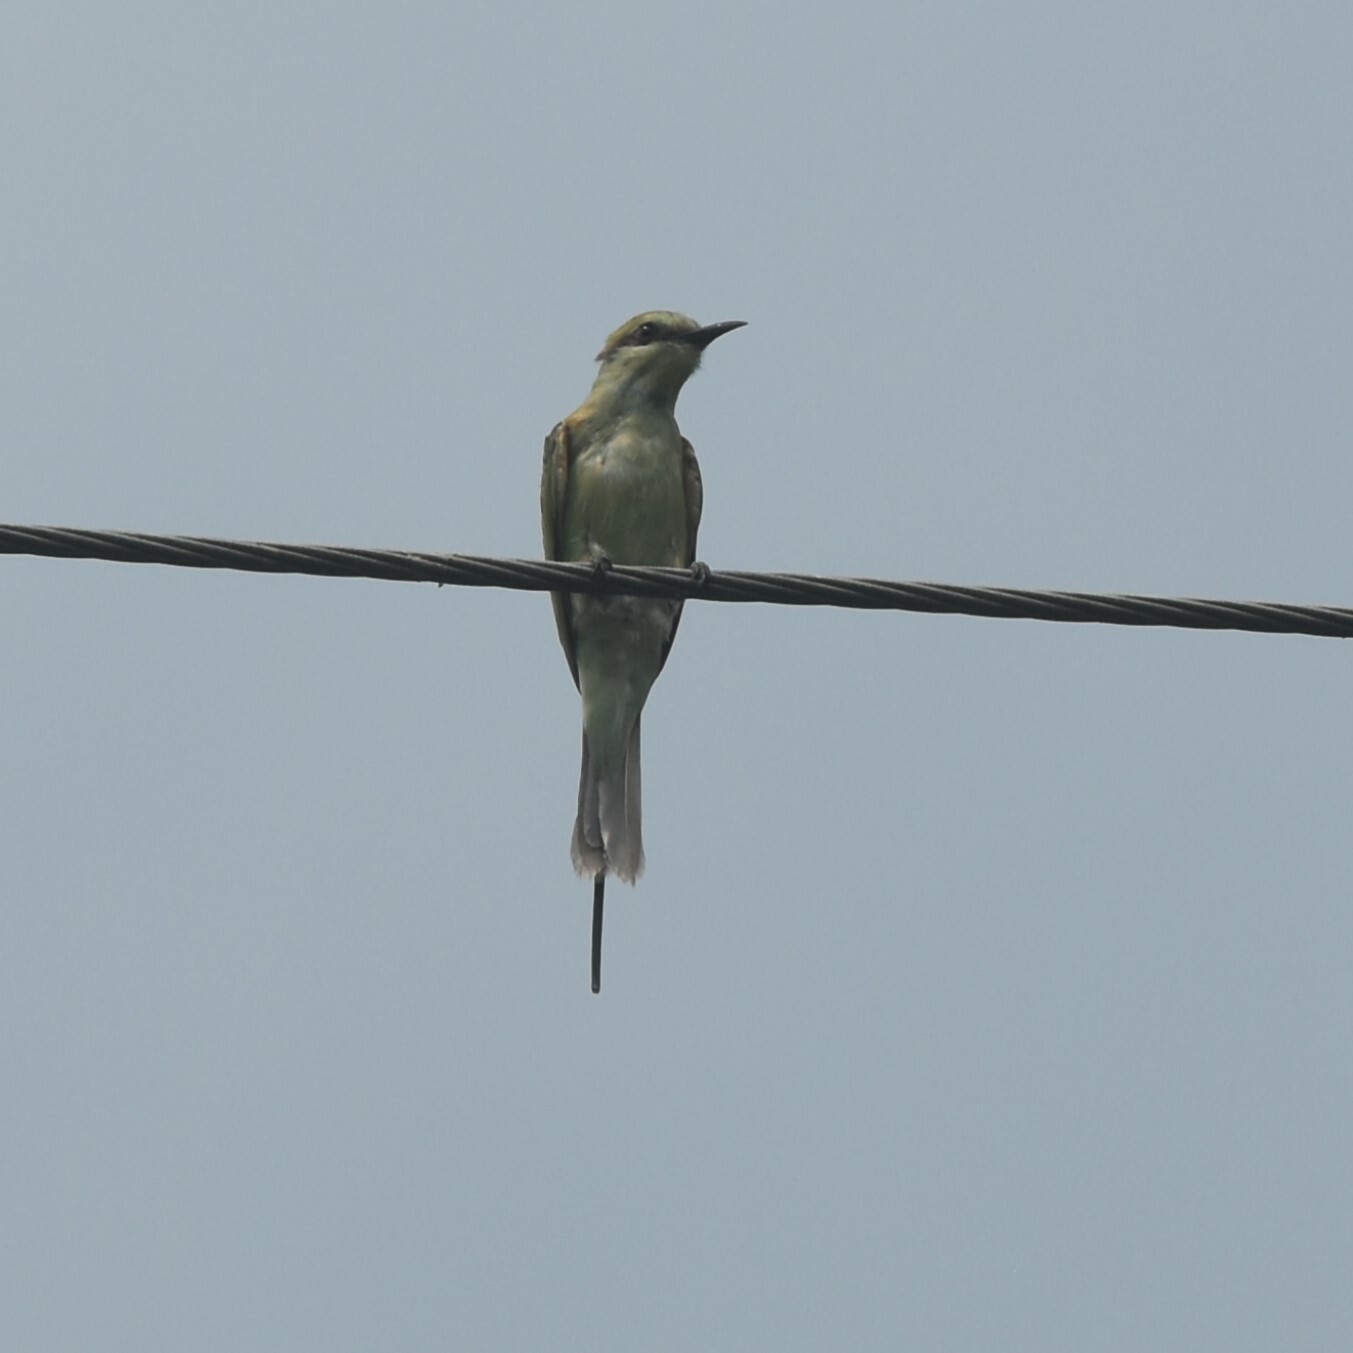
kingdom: Animalia
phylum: Chordata
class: Aves
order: Coraciiformes
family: Meropidae
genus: Merops
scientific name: Merops orientalis
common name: Green bee-eater
